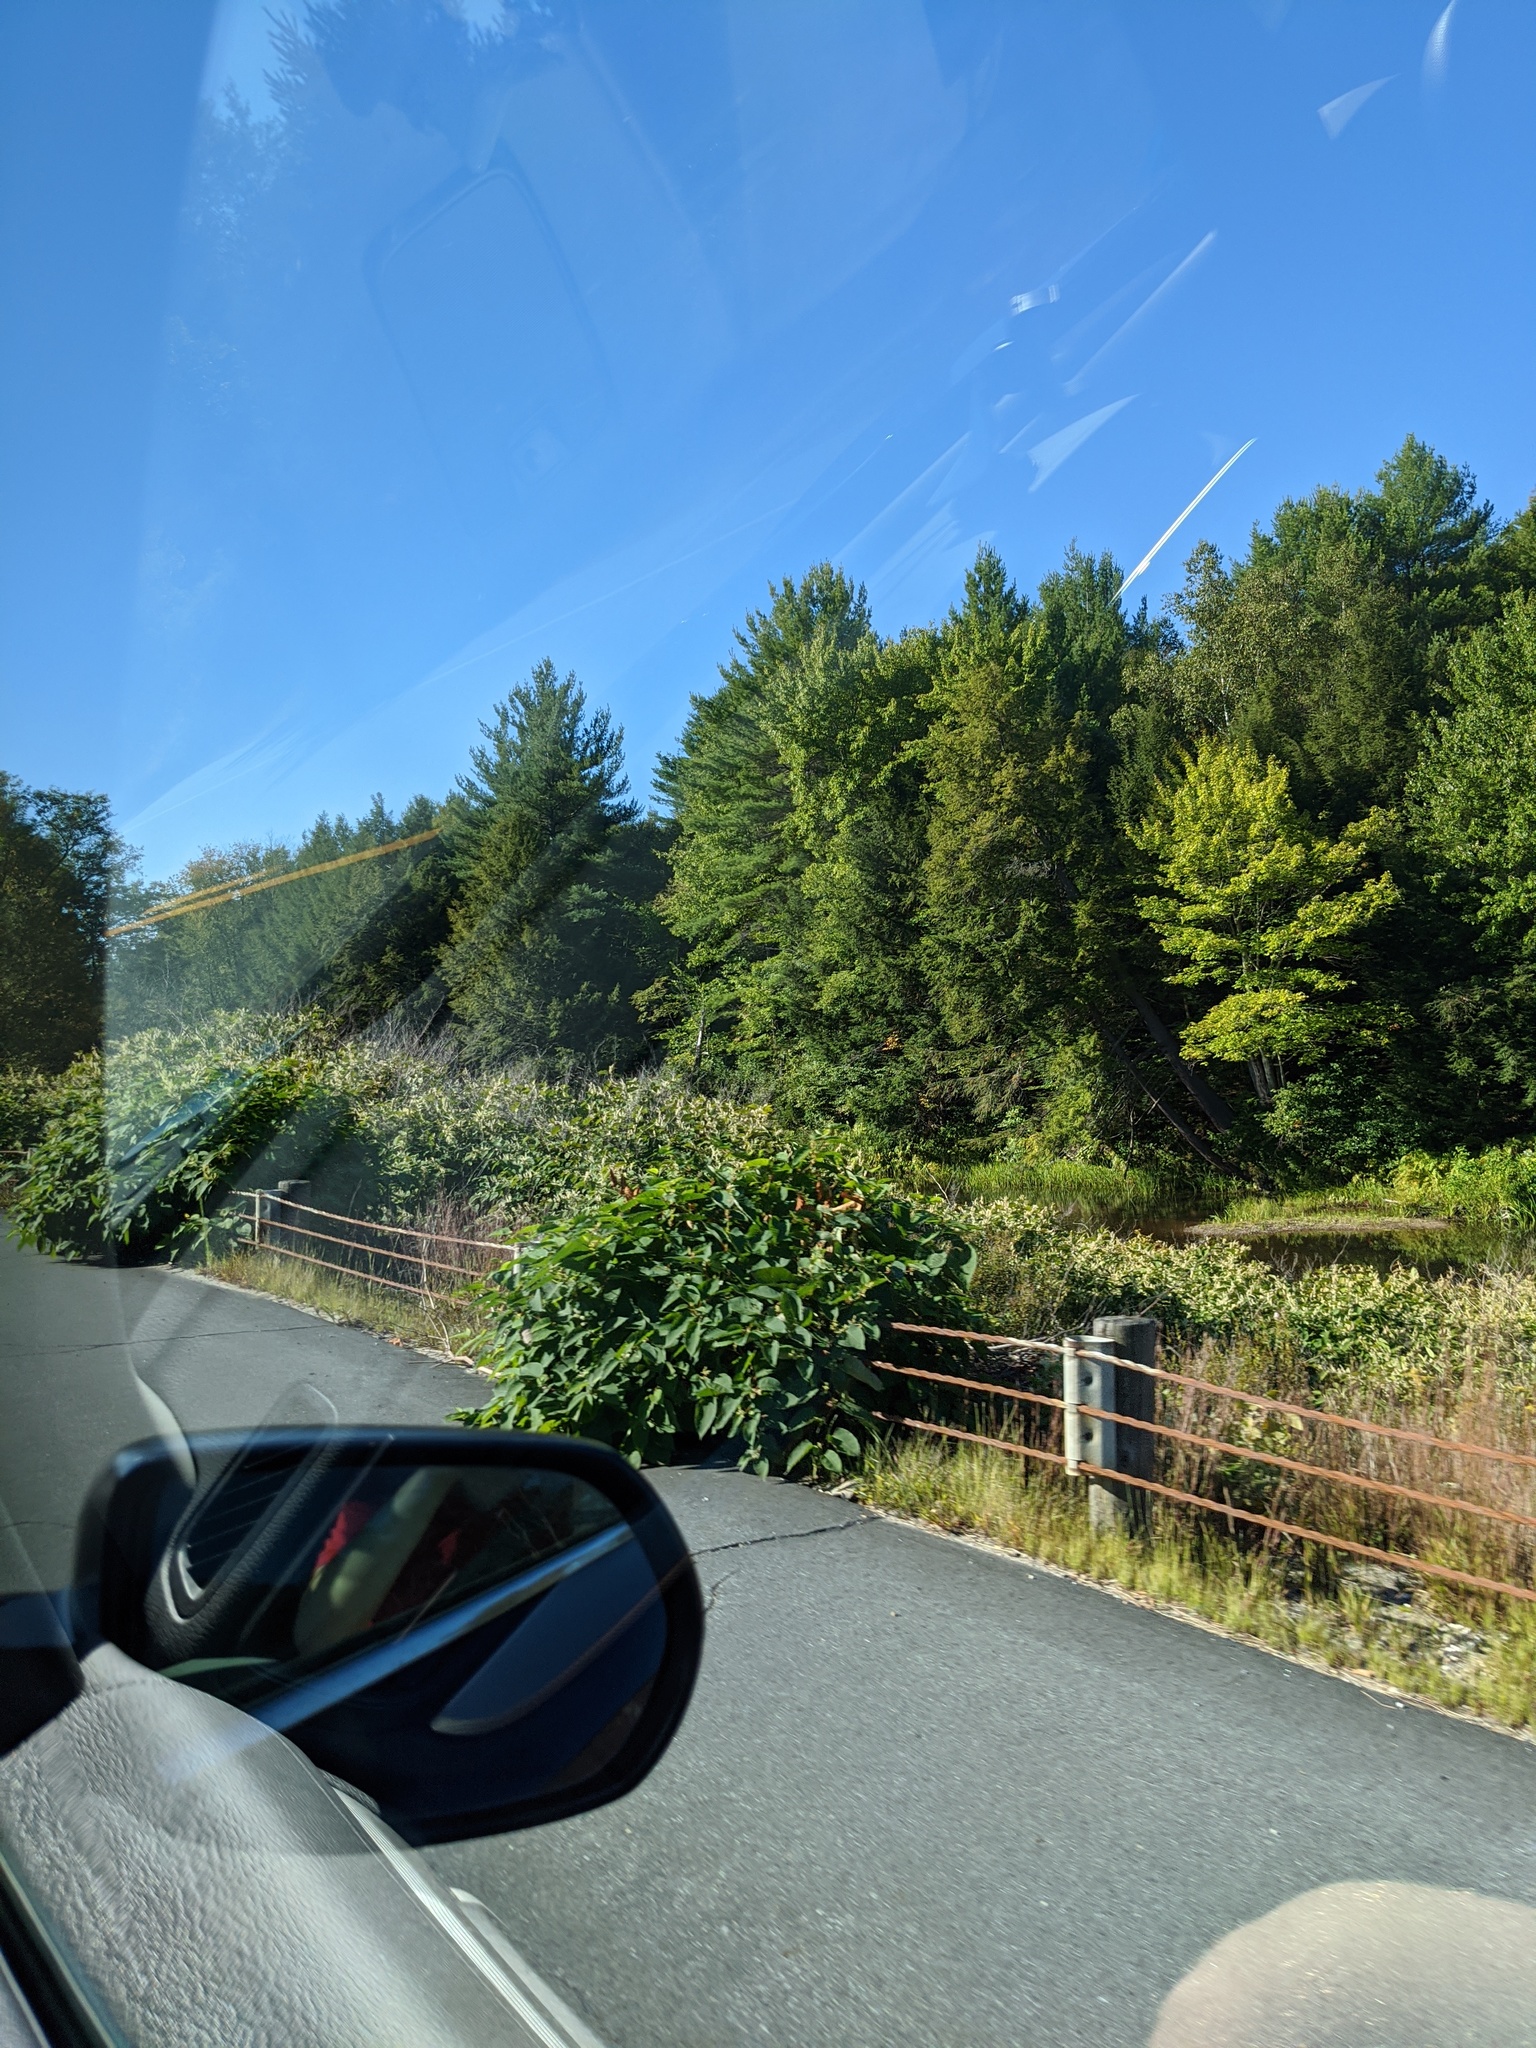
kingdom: Plantae
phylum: Tracheophyta
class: Pinopsida
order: Pinales
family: Pinaceae
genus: Pinus
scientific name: Pinus strobus
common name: Weymouth pine
